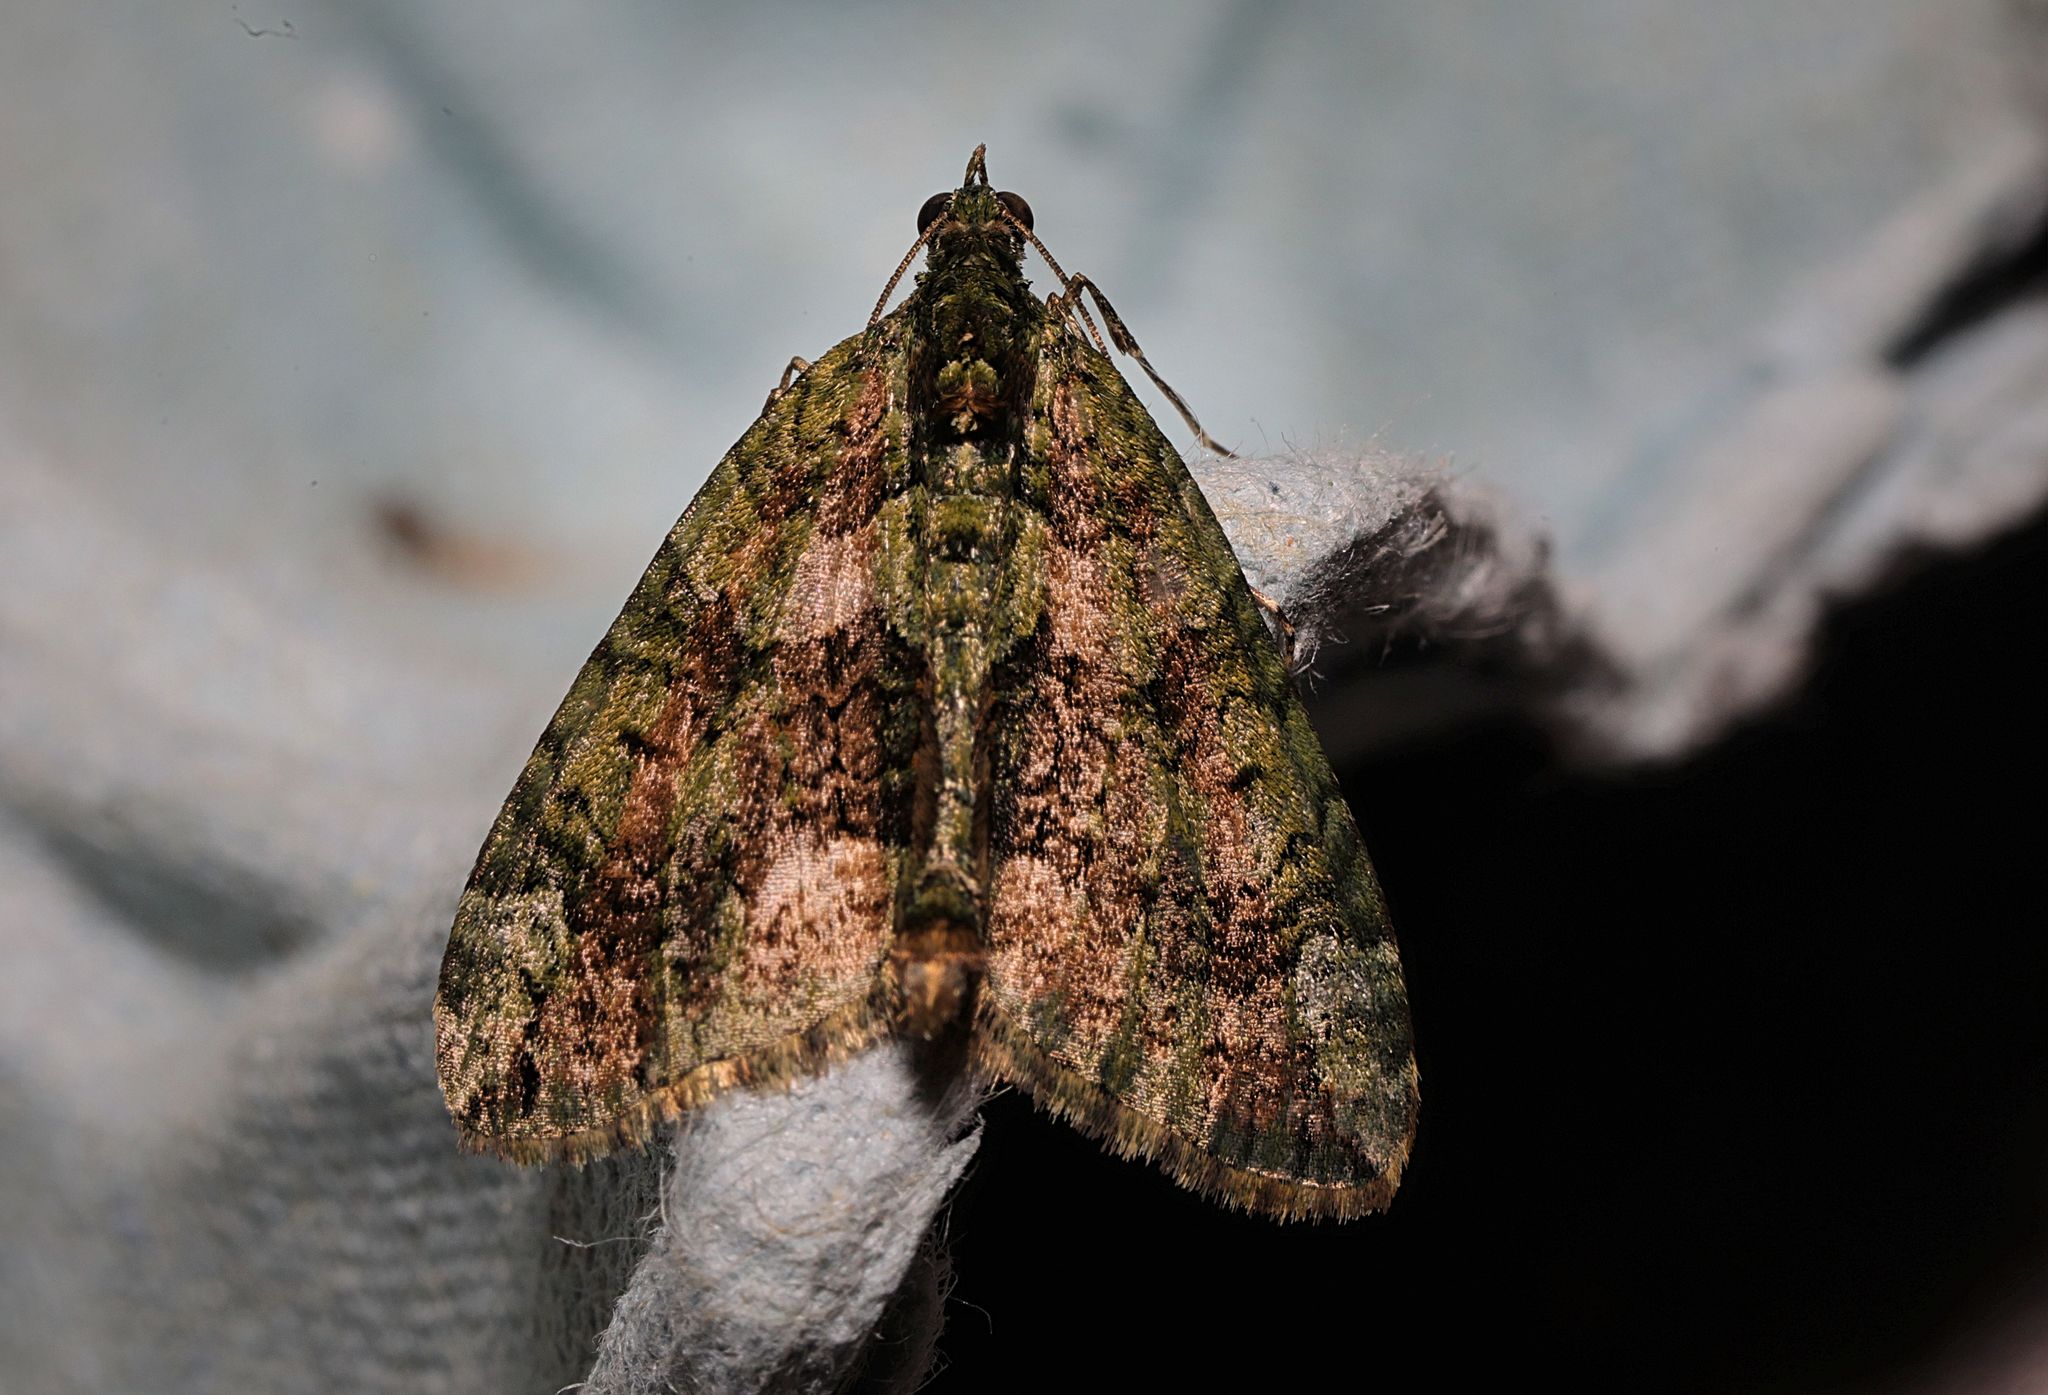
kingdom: Animalia
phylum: Arthropoda
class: Insecta
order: Lepidoptera
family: Geometridae
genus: Chloroclysta
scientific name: Chloroclysta siterata
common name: Red-green carpet
